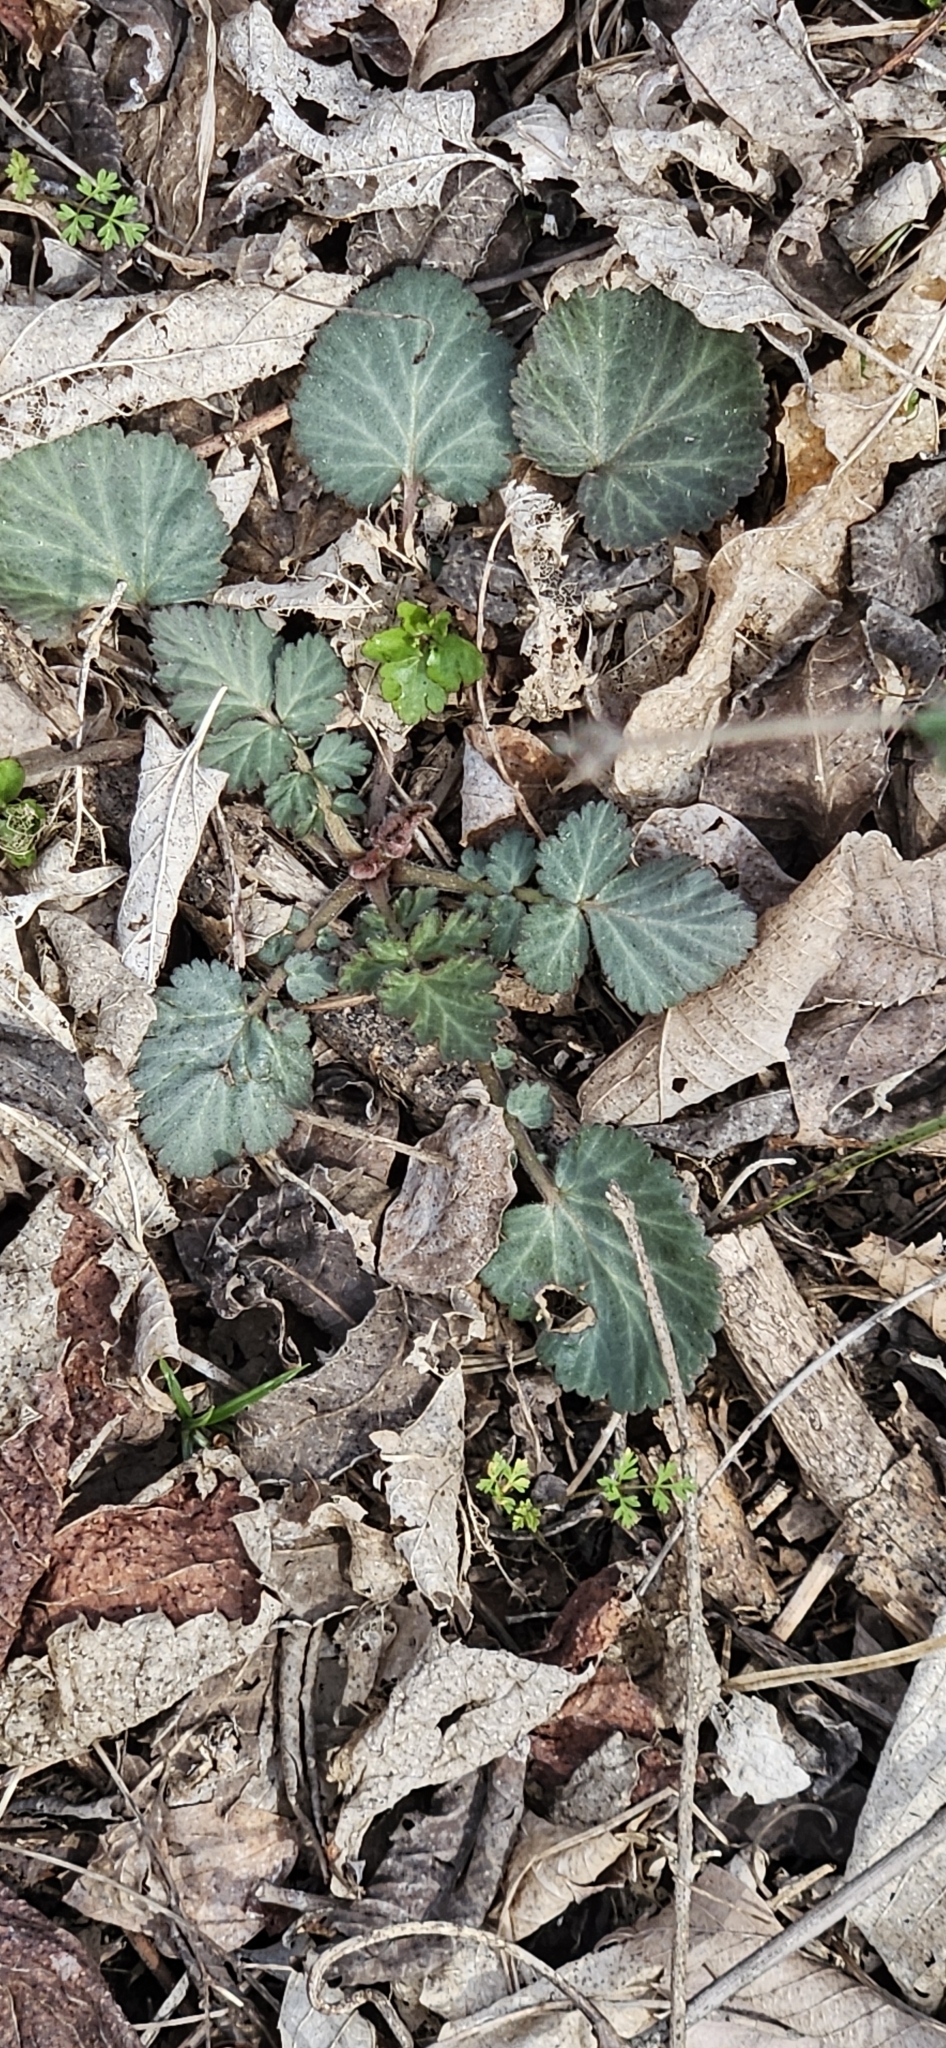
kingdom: Plantae
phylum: Tracheophyta
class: Magnoliopsida
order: Rosales
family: Rosaceae
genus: Geum
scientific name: Geum canadense
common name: White avens
